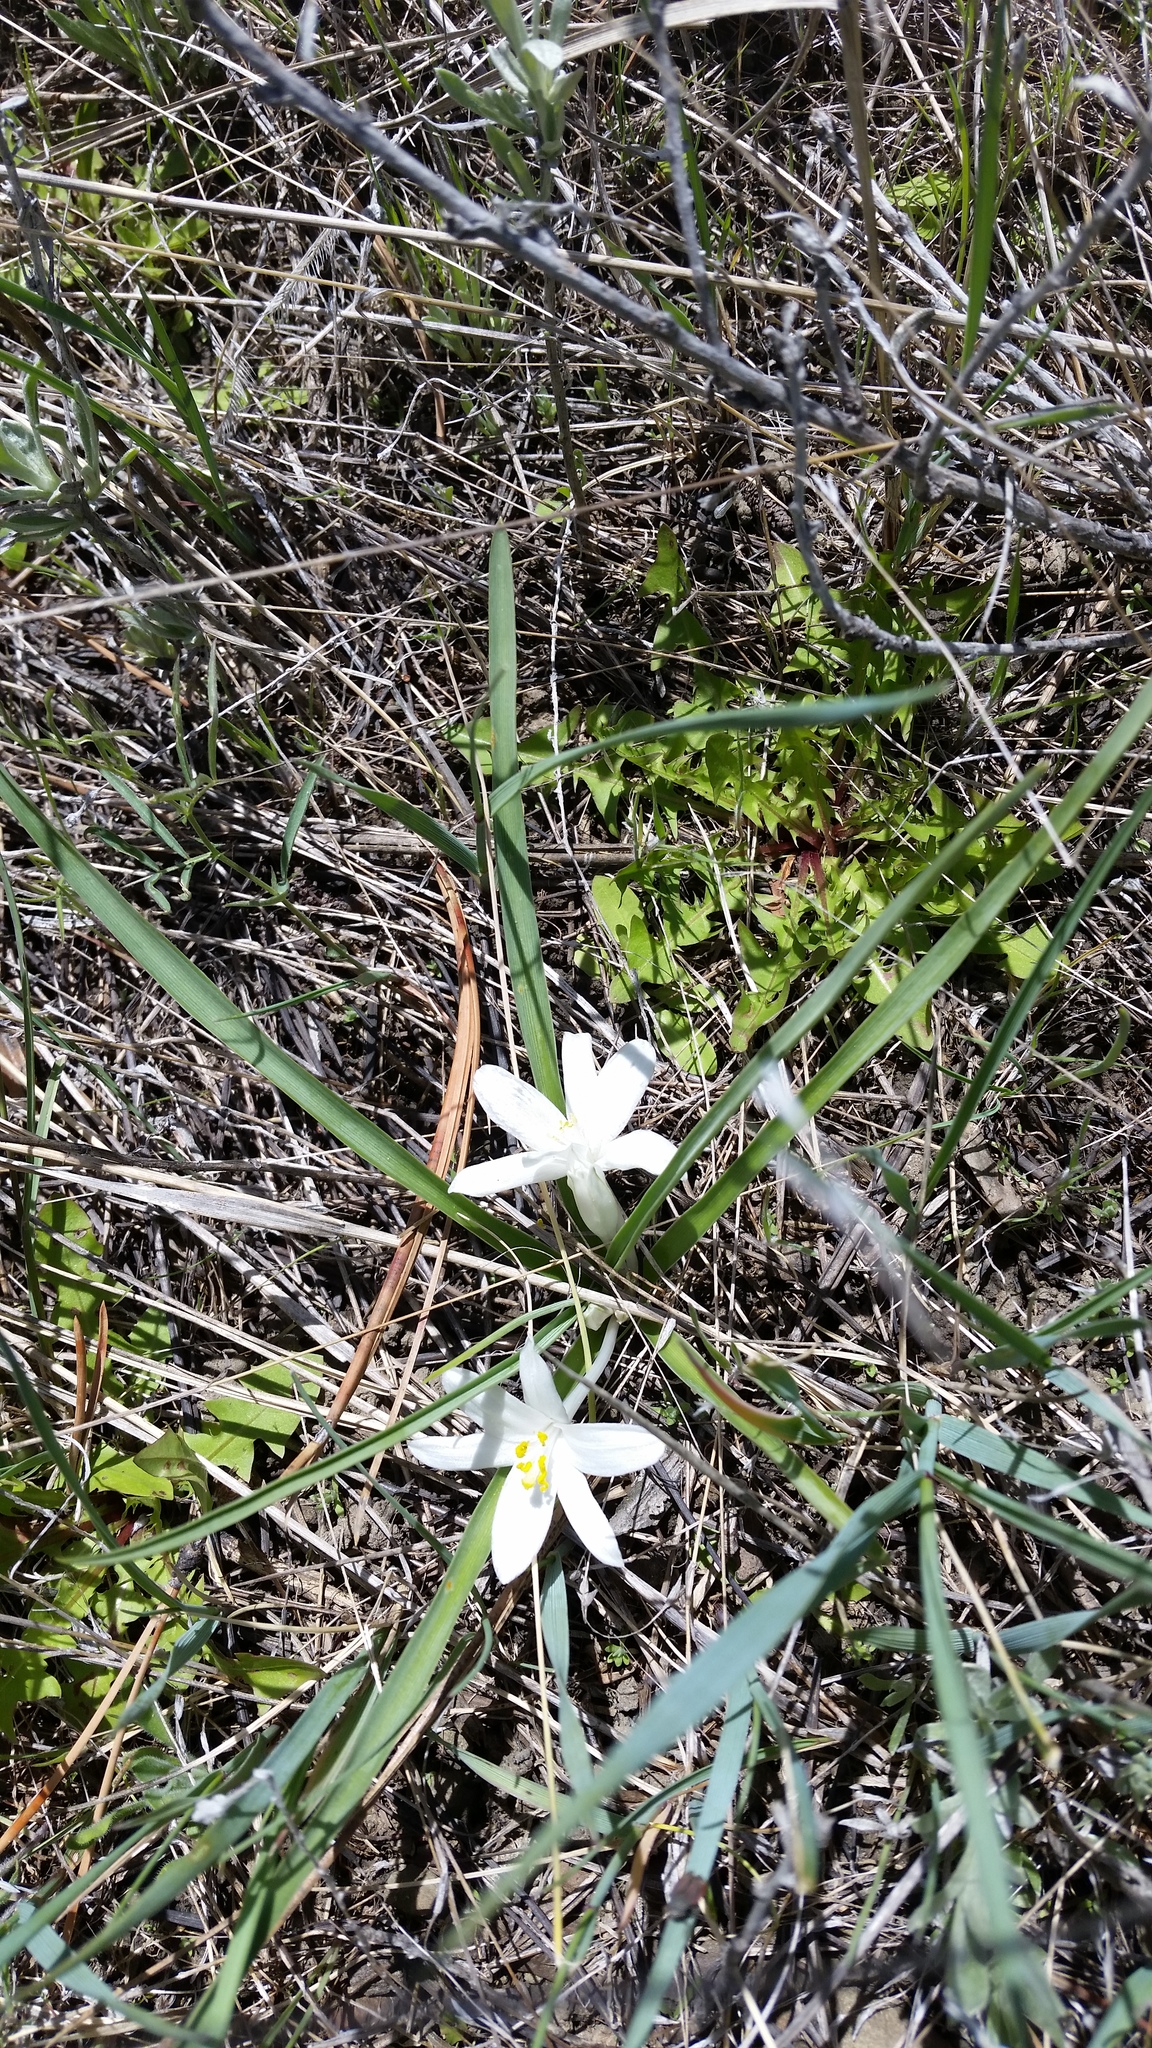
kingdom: Plantae
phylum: Tracheophyta
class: Liliopsida
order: Asparagales
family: Asparagaceae
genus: Leucocrinum
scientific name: Leucocrinum montanum
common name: Mountain-lily
